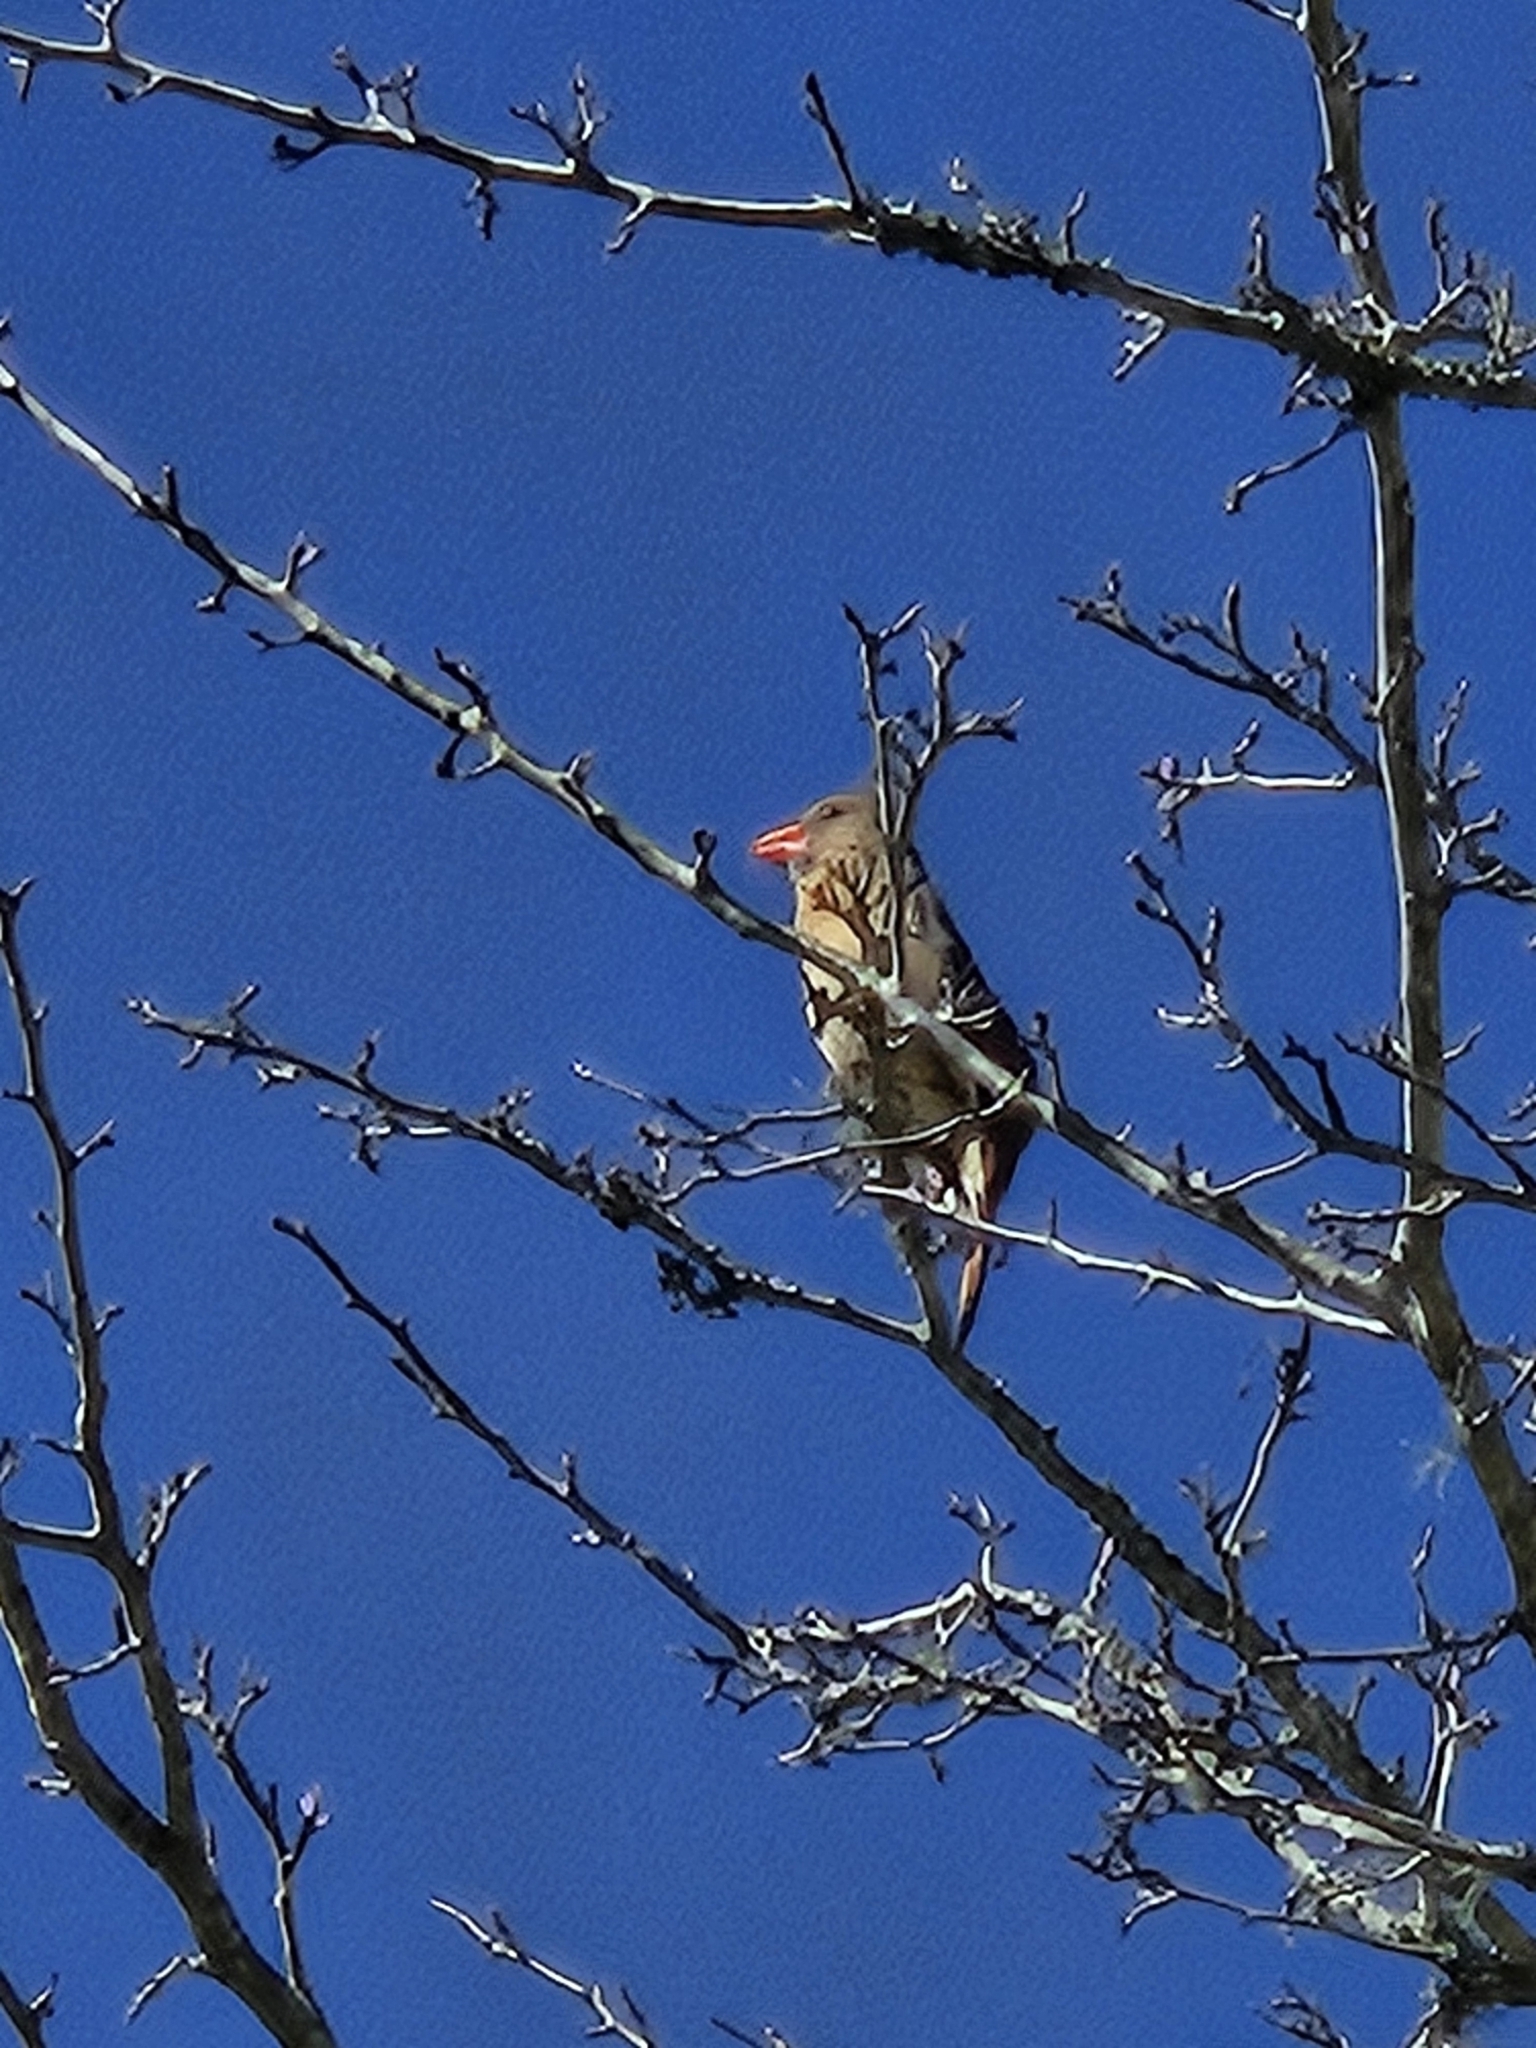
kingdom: Animalia
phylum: Chordata
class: Aves
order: Passeriformes
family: Cardinalidae
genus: Cardinalis
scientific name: Cardinalis cardinalis
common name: Northern cardinal
